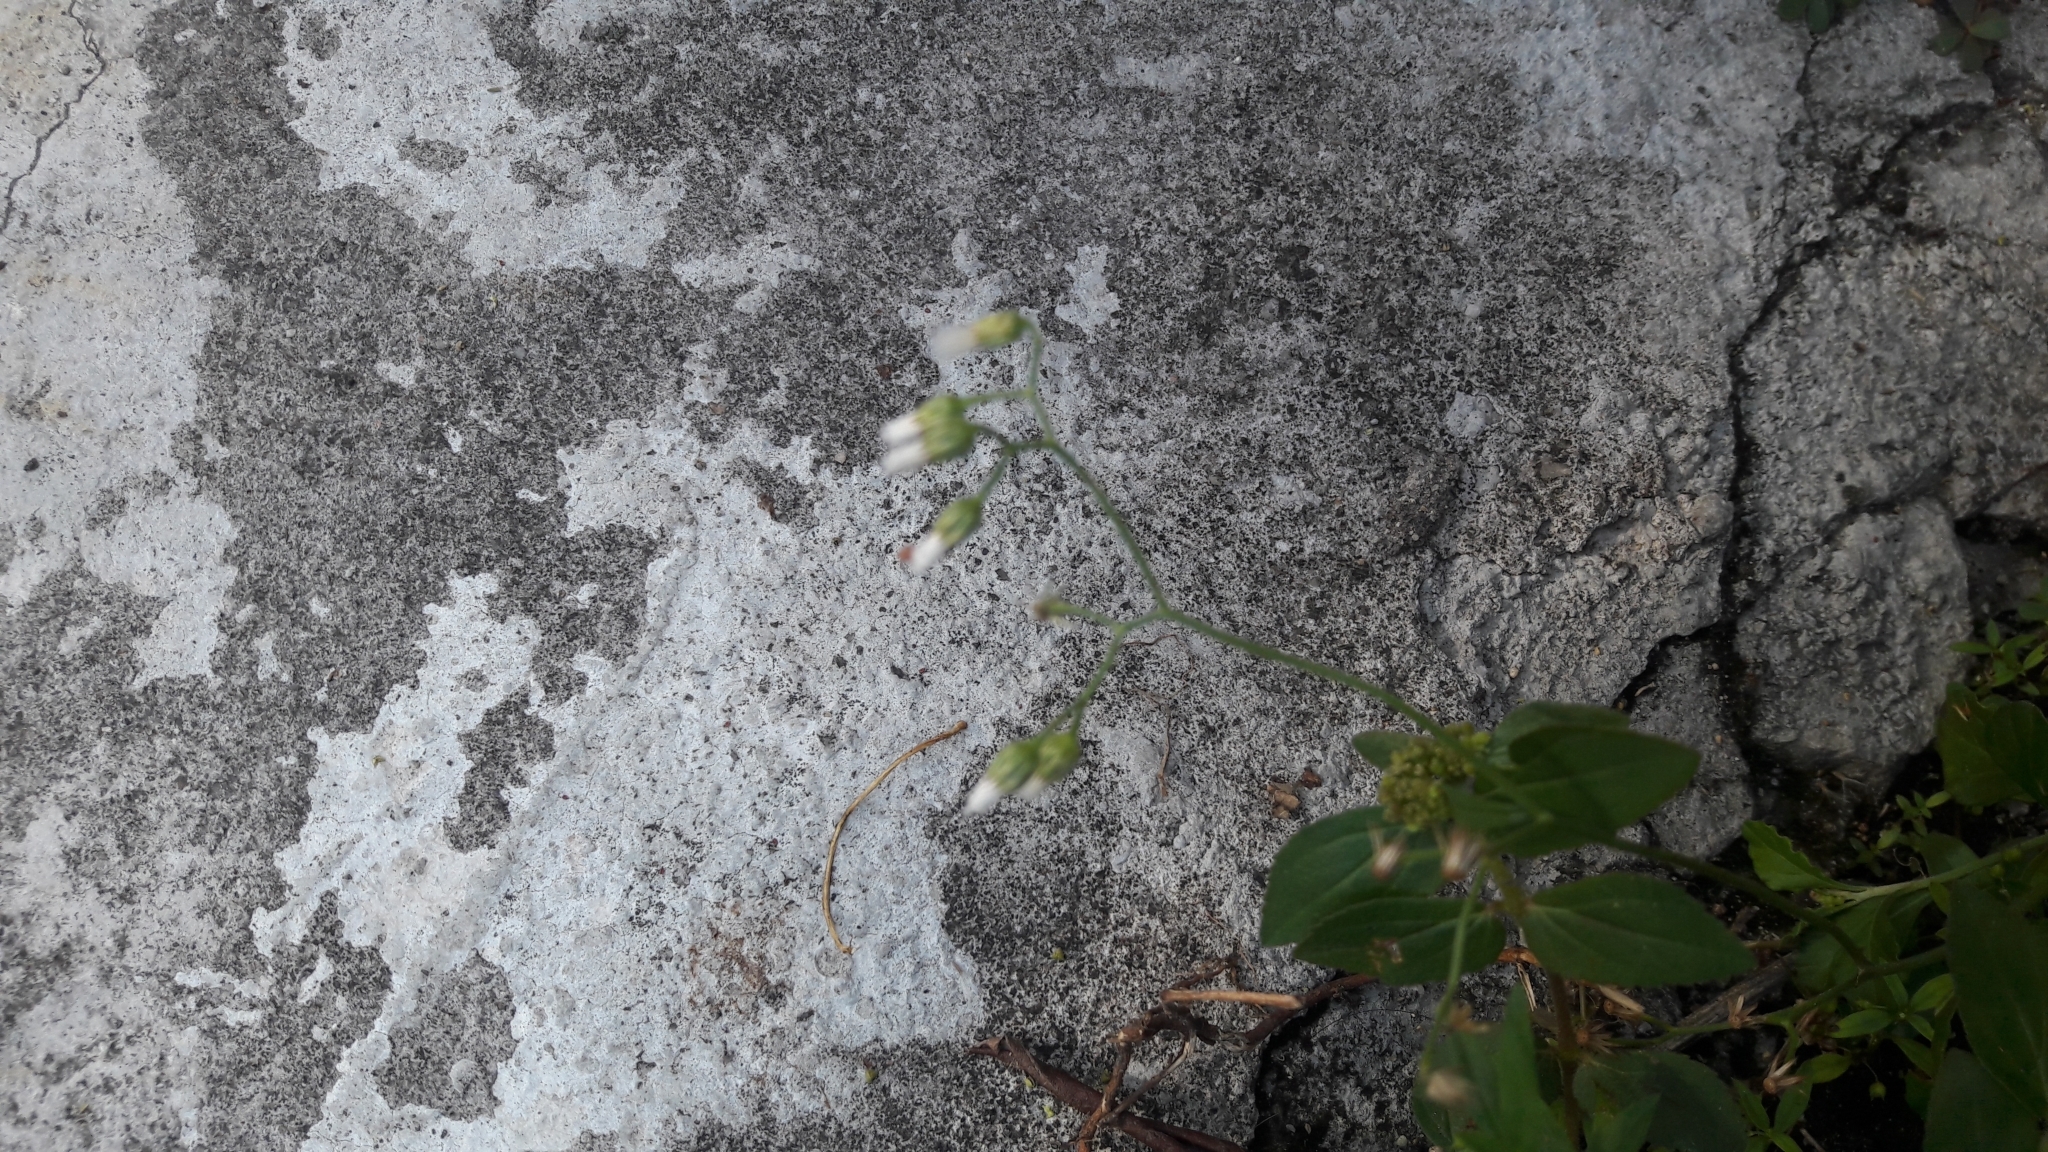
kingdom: Plantae
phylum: Tracheophyta
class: Magnoliopsida
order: Asterales
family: Asteraceae
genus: Cyanthillium
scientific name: Cyanthillium cinereum
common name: Little ironweed
